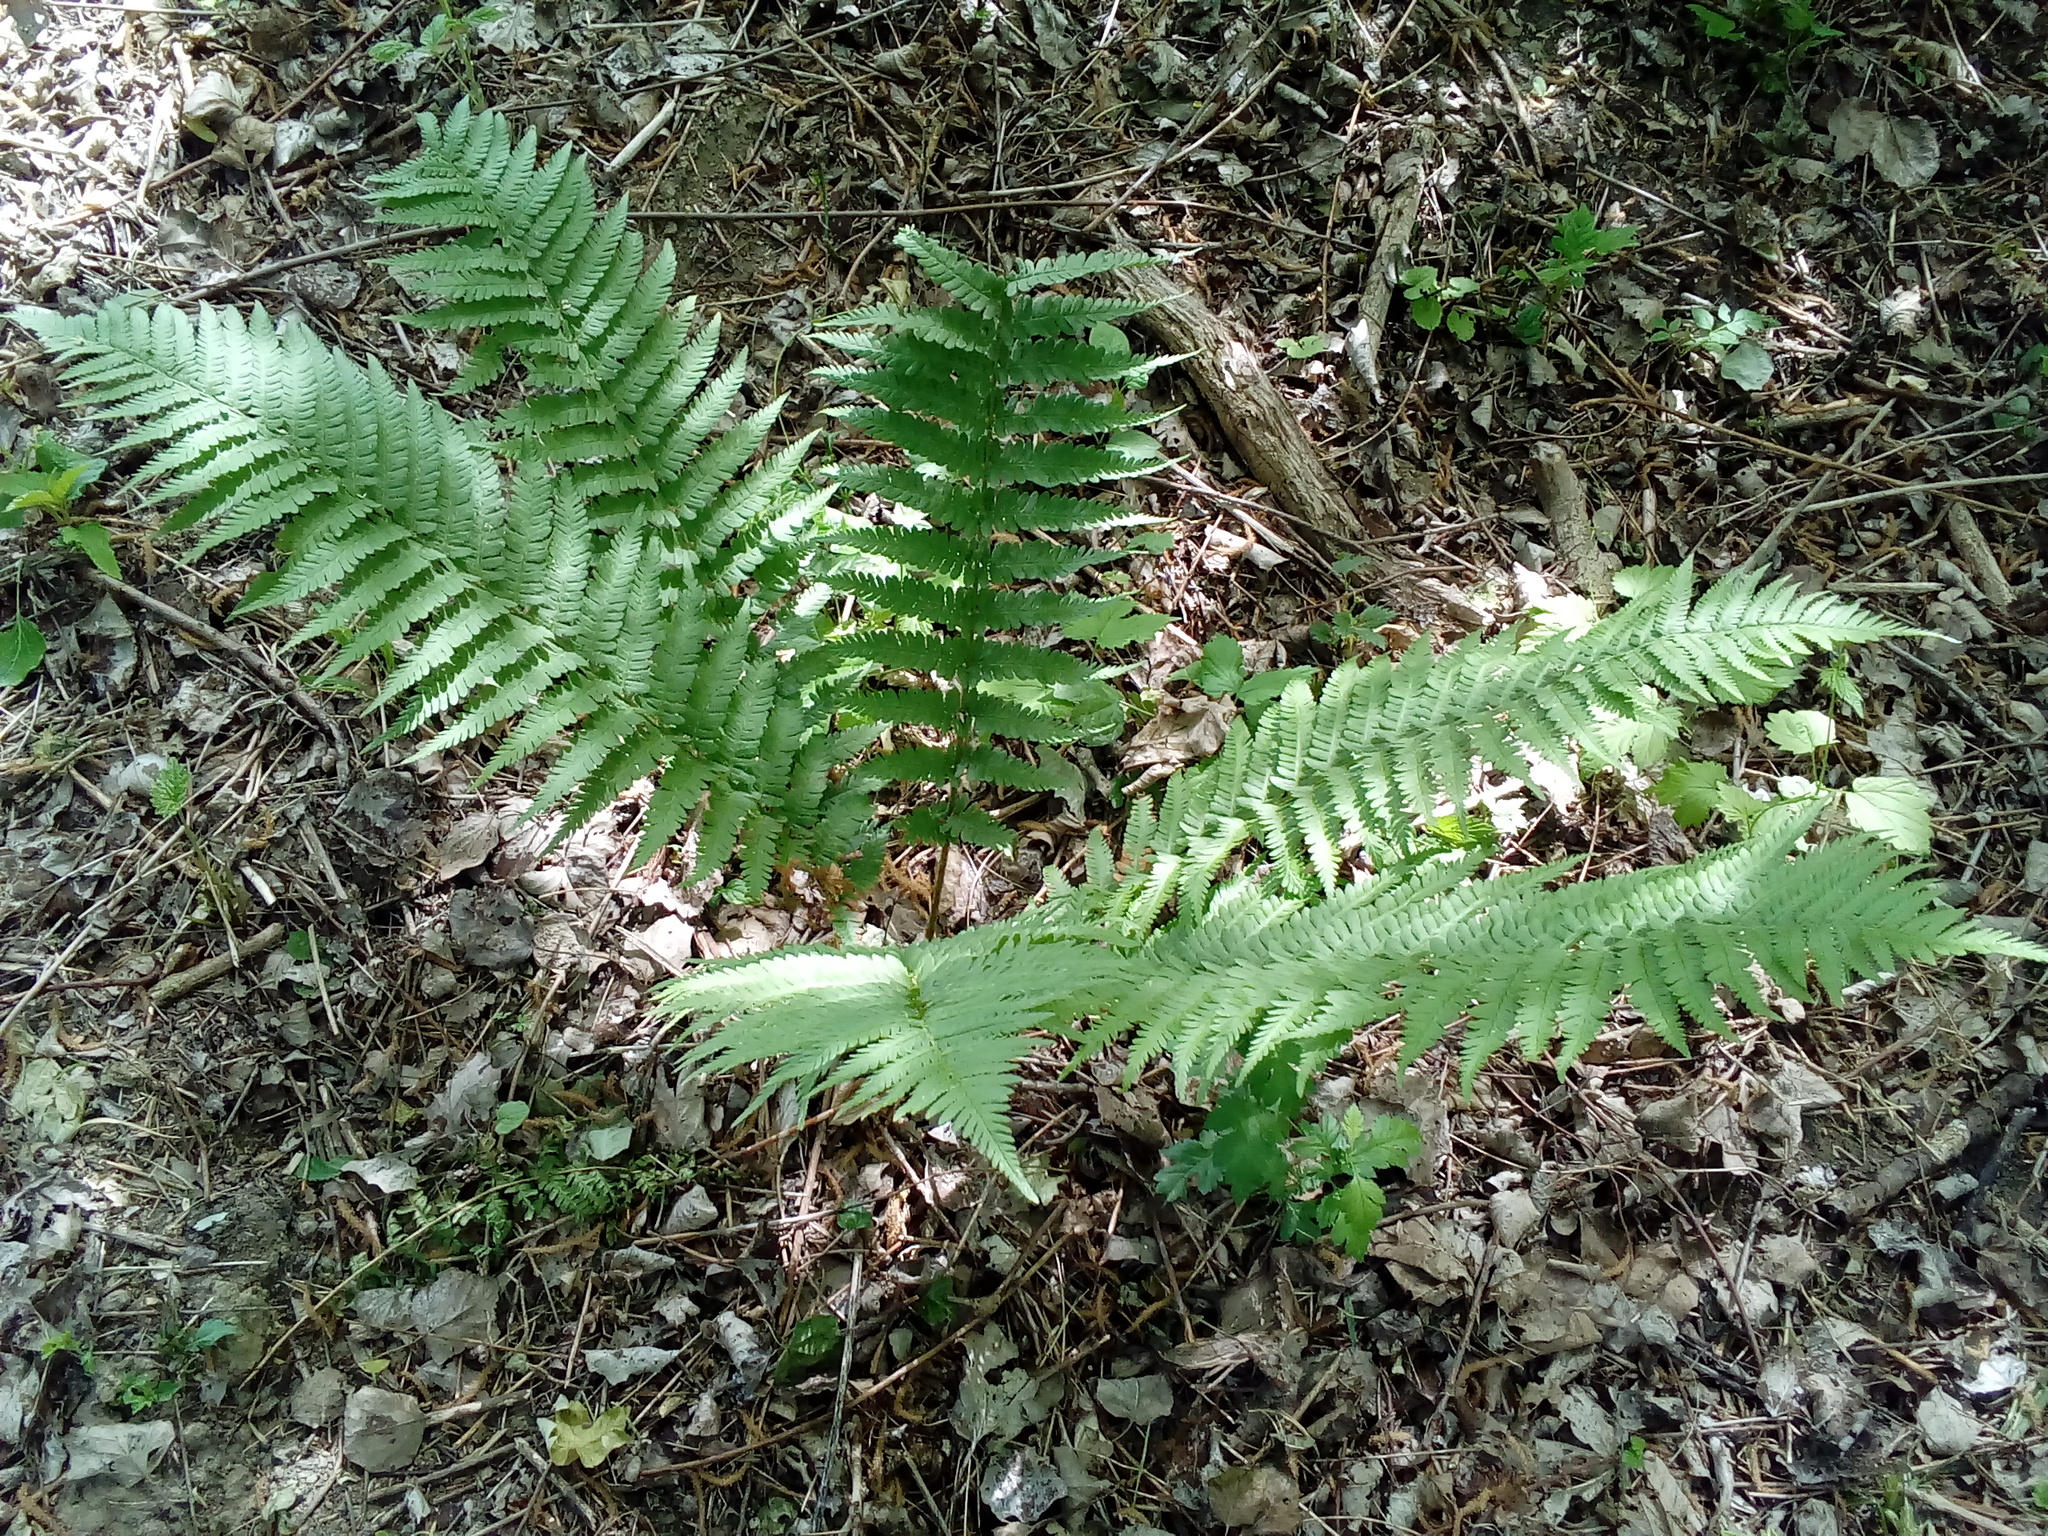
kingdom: Plantae
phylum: Tracheophyta
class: Polypodiopsida
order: Polypodiales
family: Dryopteridaceae
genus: Dryopteris
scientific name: Dryopteris filix-mas
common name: Male fern
